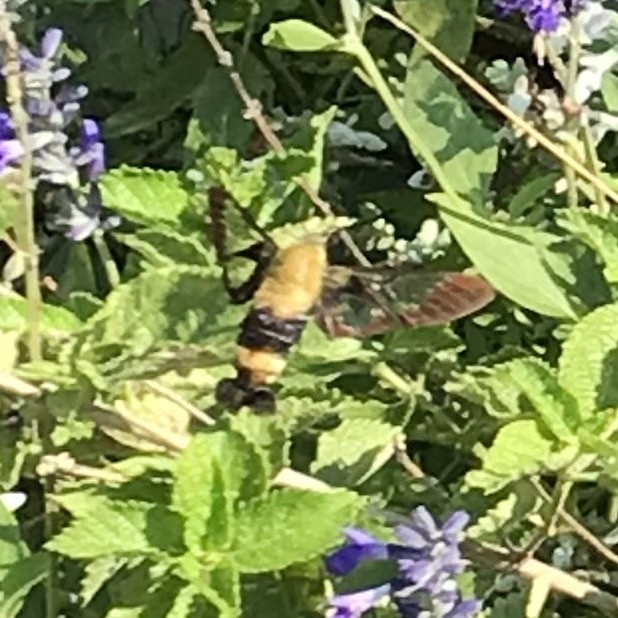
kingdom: Animalia
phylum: Arthropoda
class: Insecta
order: Lepidoptera
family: Sphingidae
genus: Hemaris
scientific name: Hemaris diffinis
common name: Bumblebee moth
